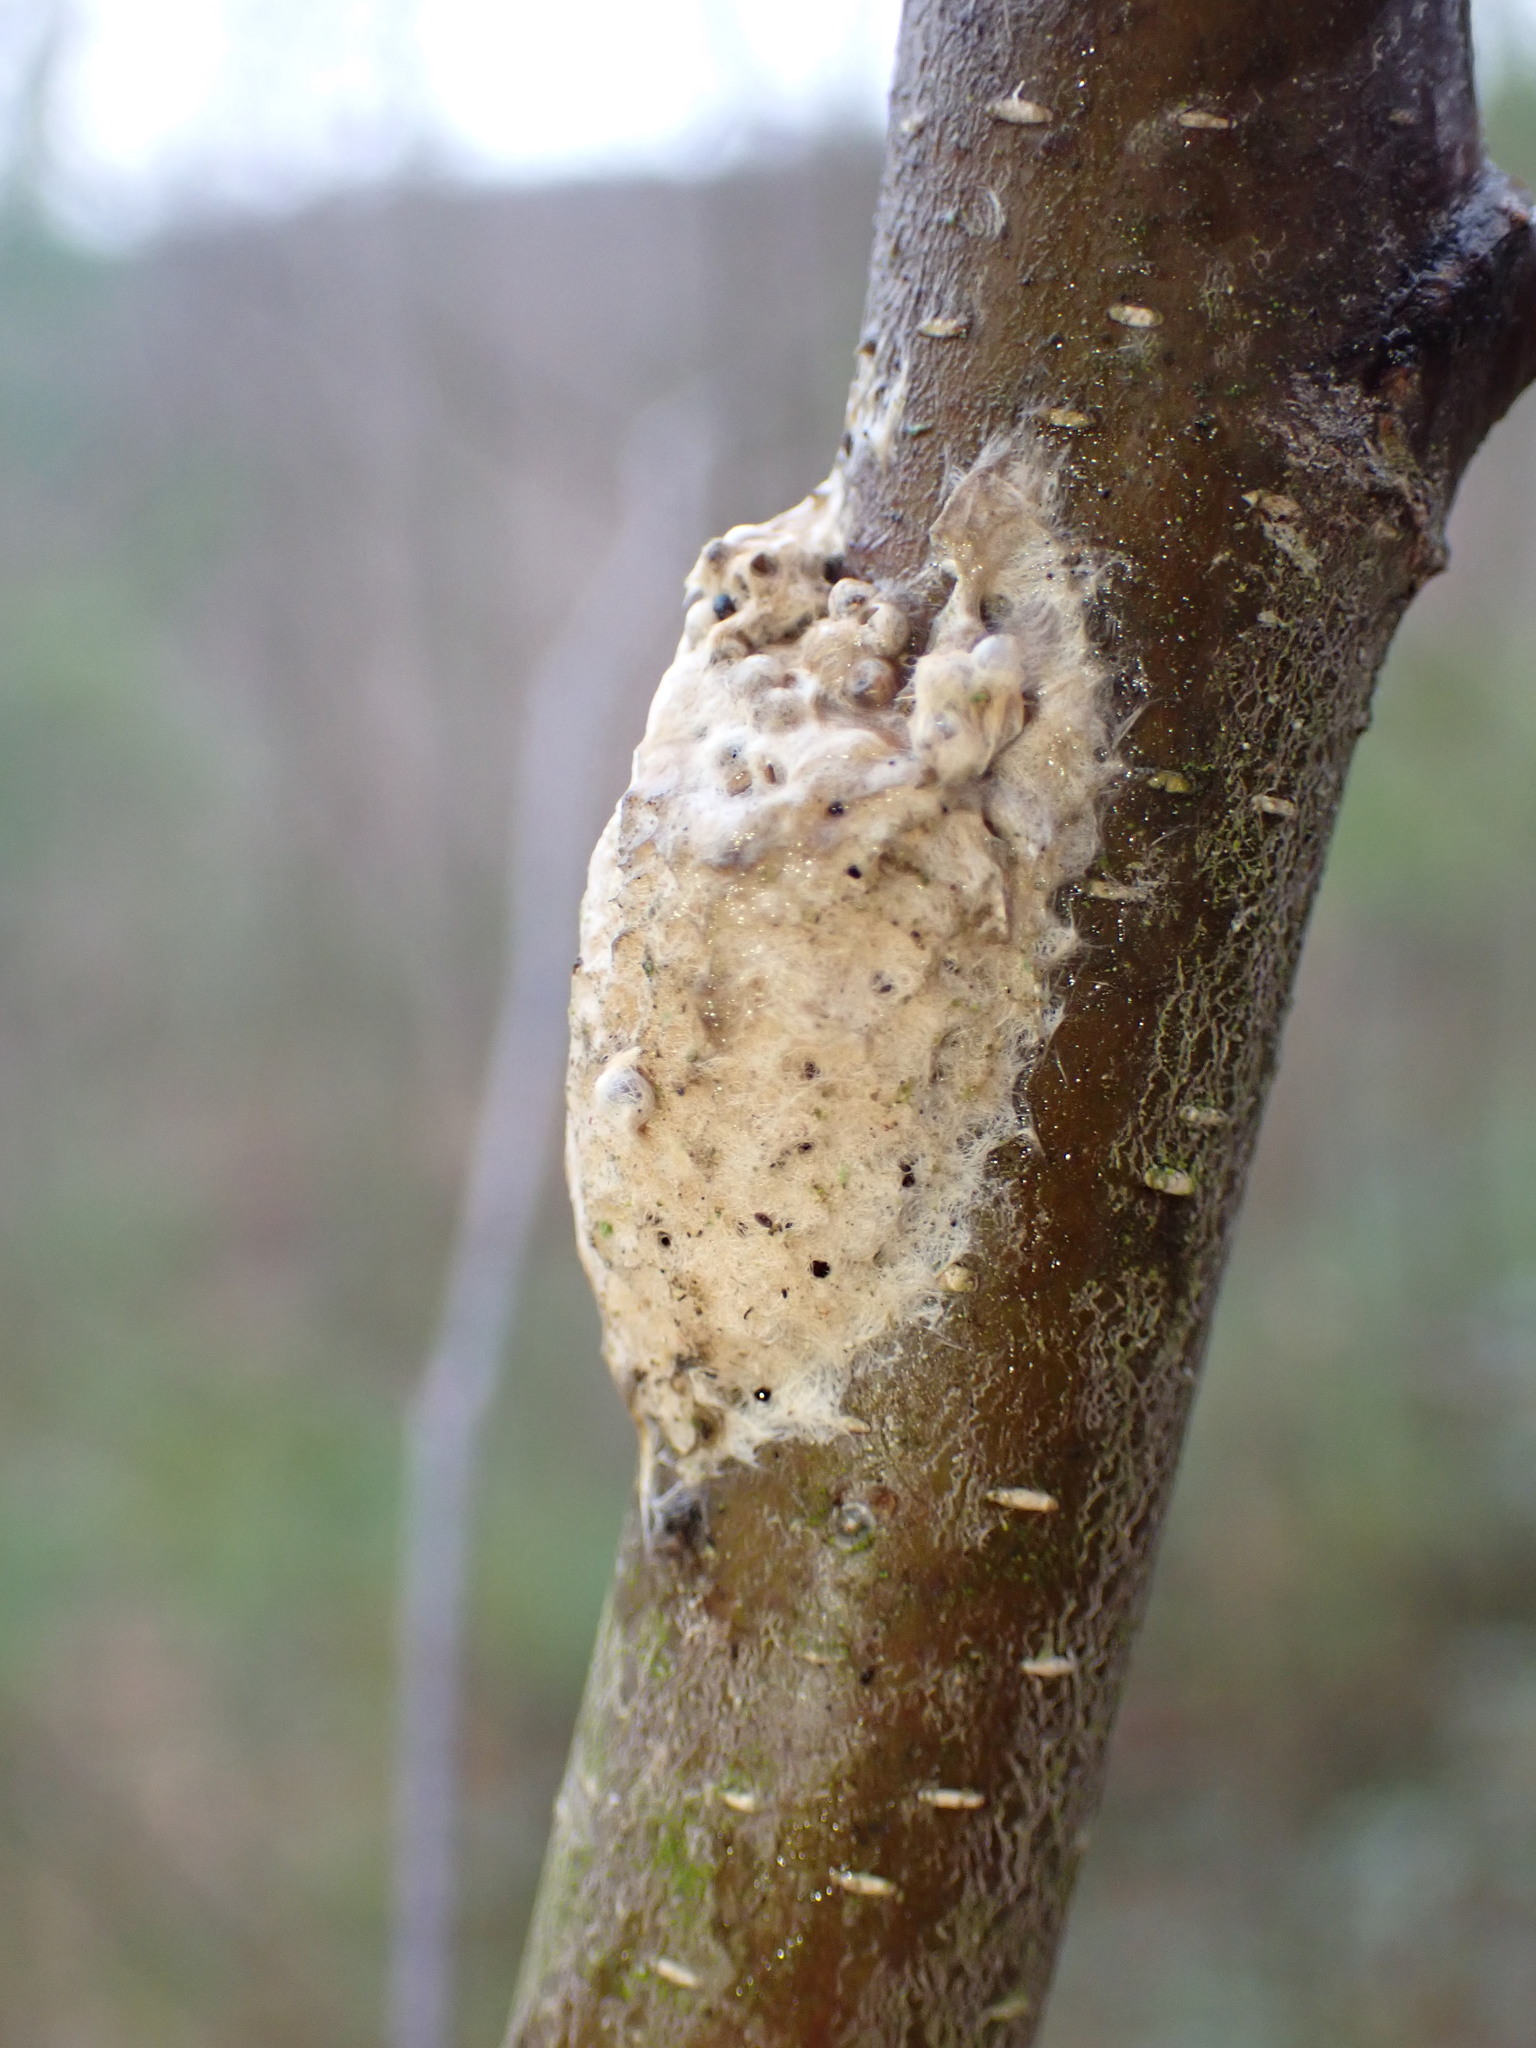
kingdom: Animalia
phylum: Arthropoda
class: Insecta
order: Lepidoptera
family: Erebidae
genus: Lymantria
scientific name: Lymantria dispar
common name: Gypsy moth
